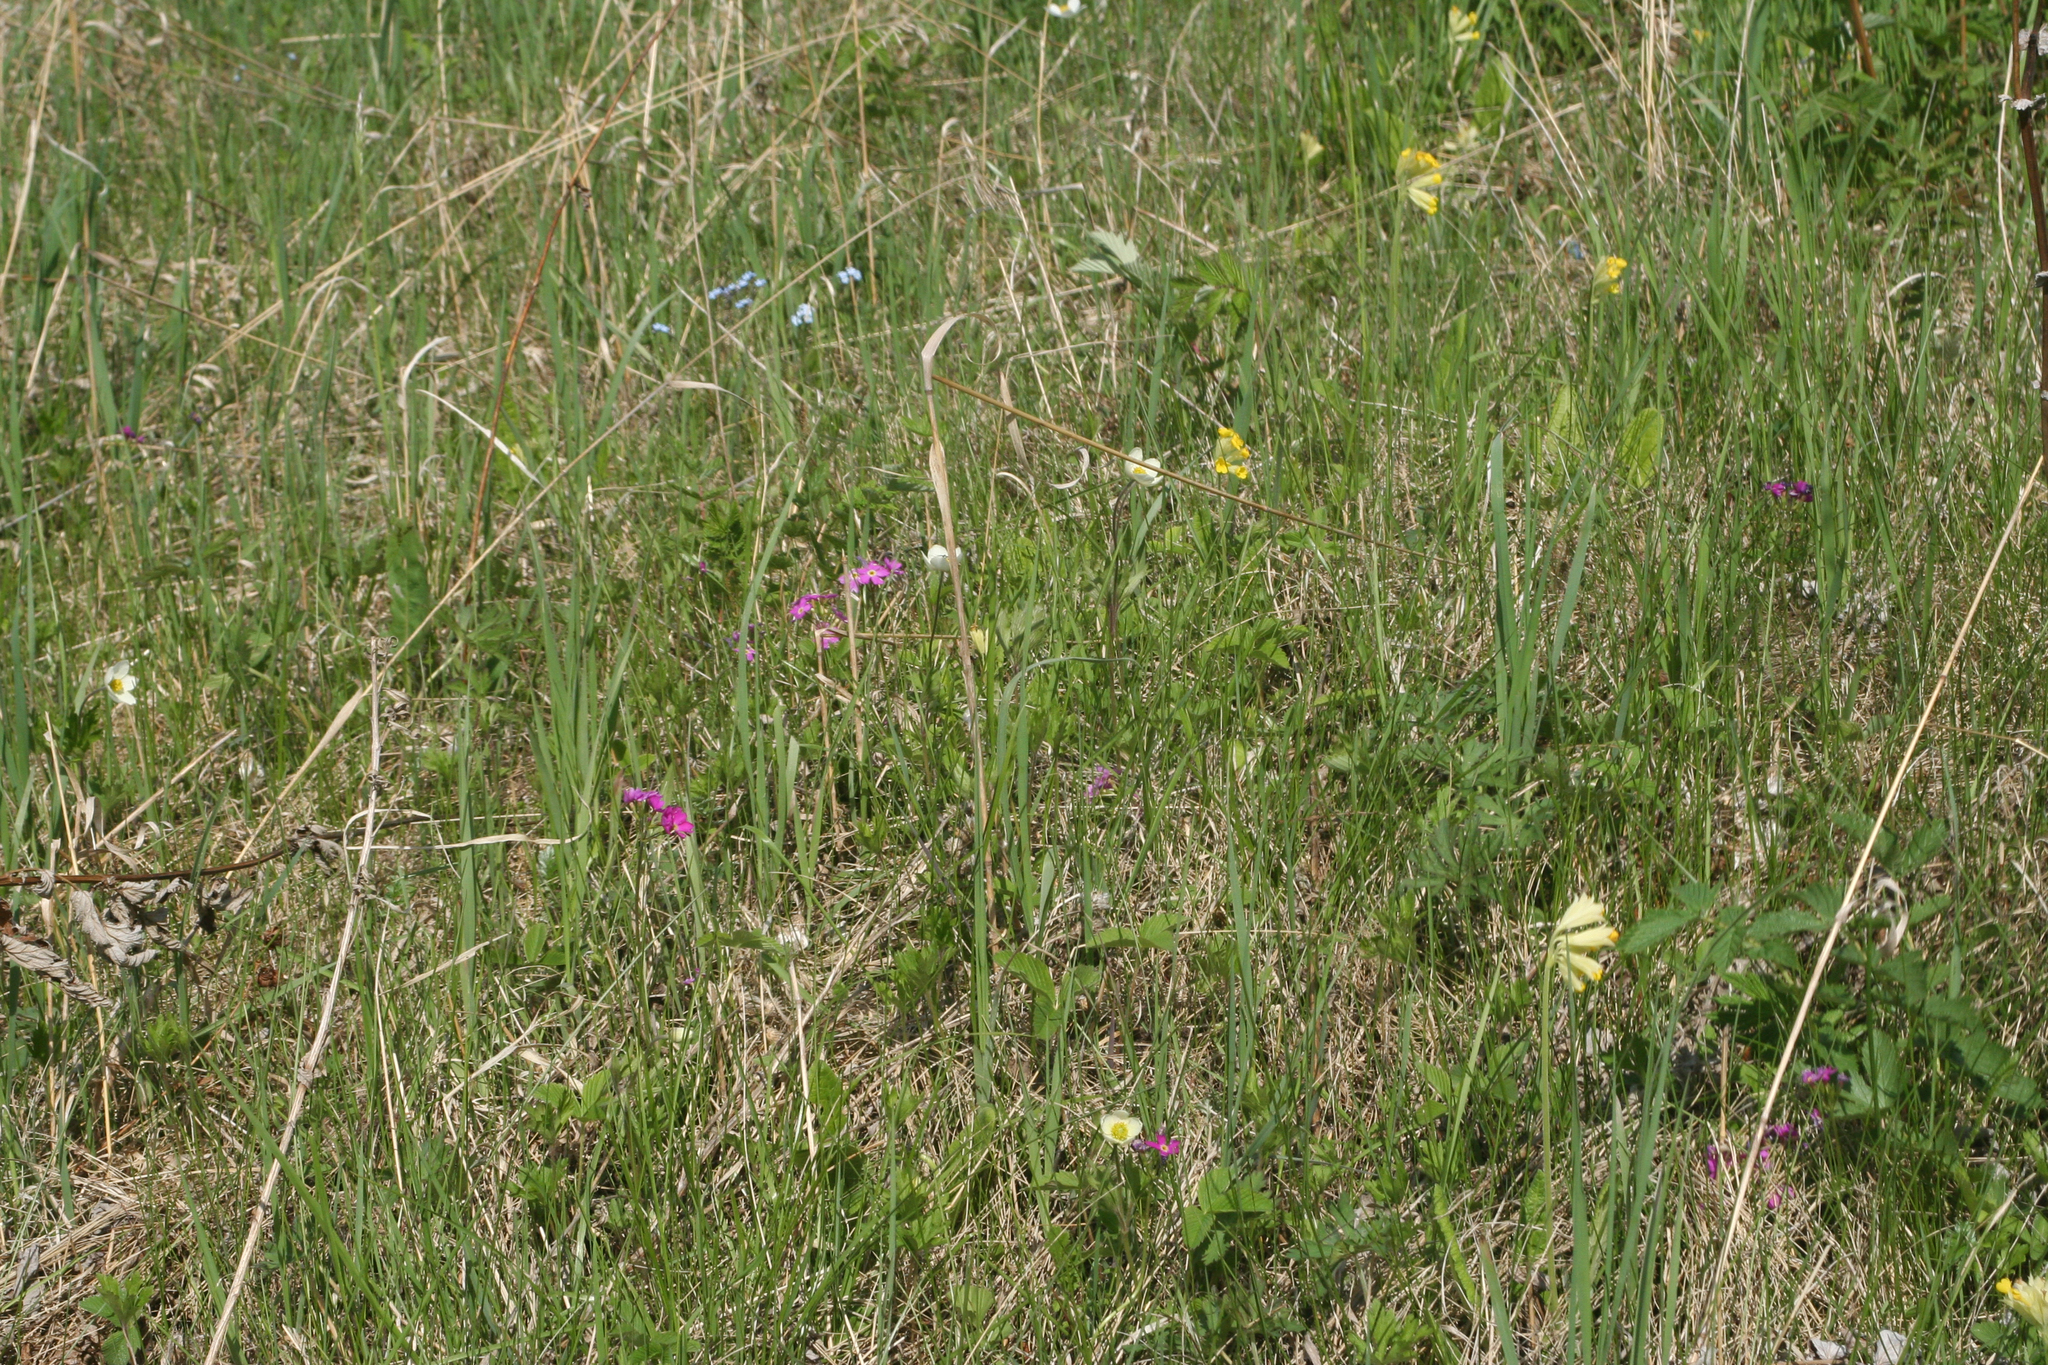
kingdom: Plantae
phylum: Tracheophyta
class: Magnoliopsida
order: Ericales
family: Primulaceae
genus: Primula
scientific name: Primula cortusoides
